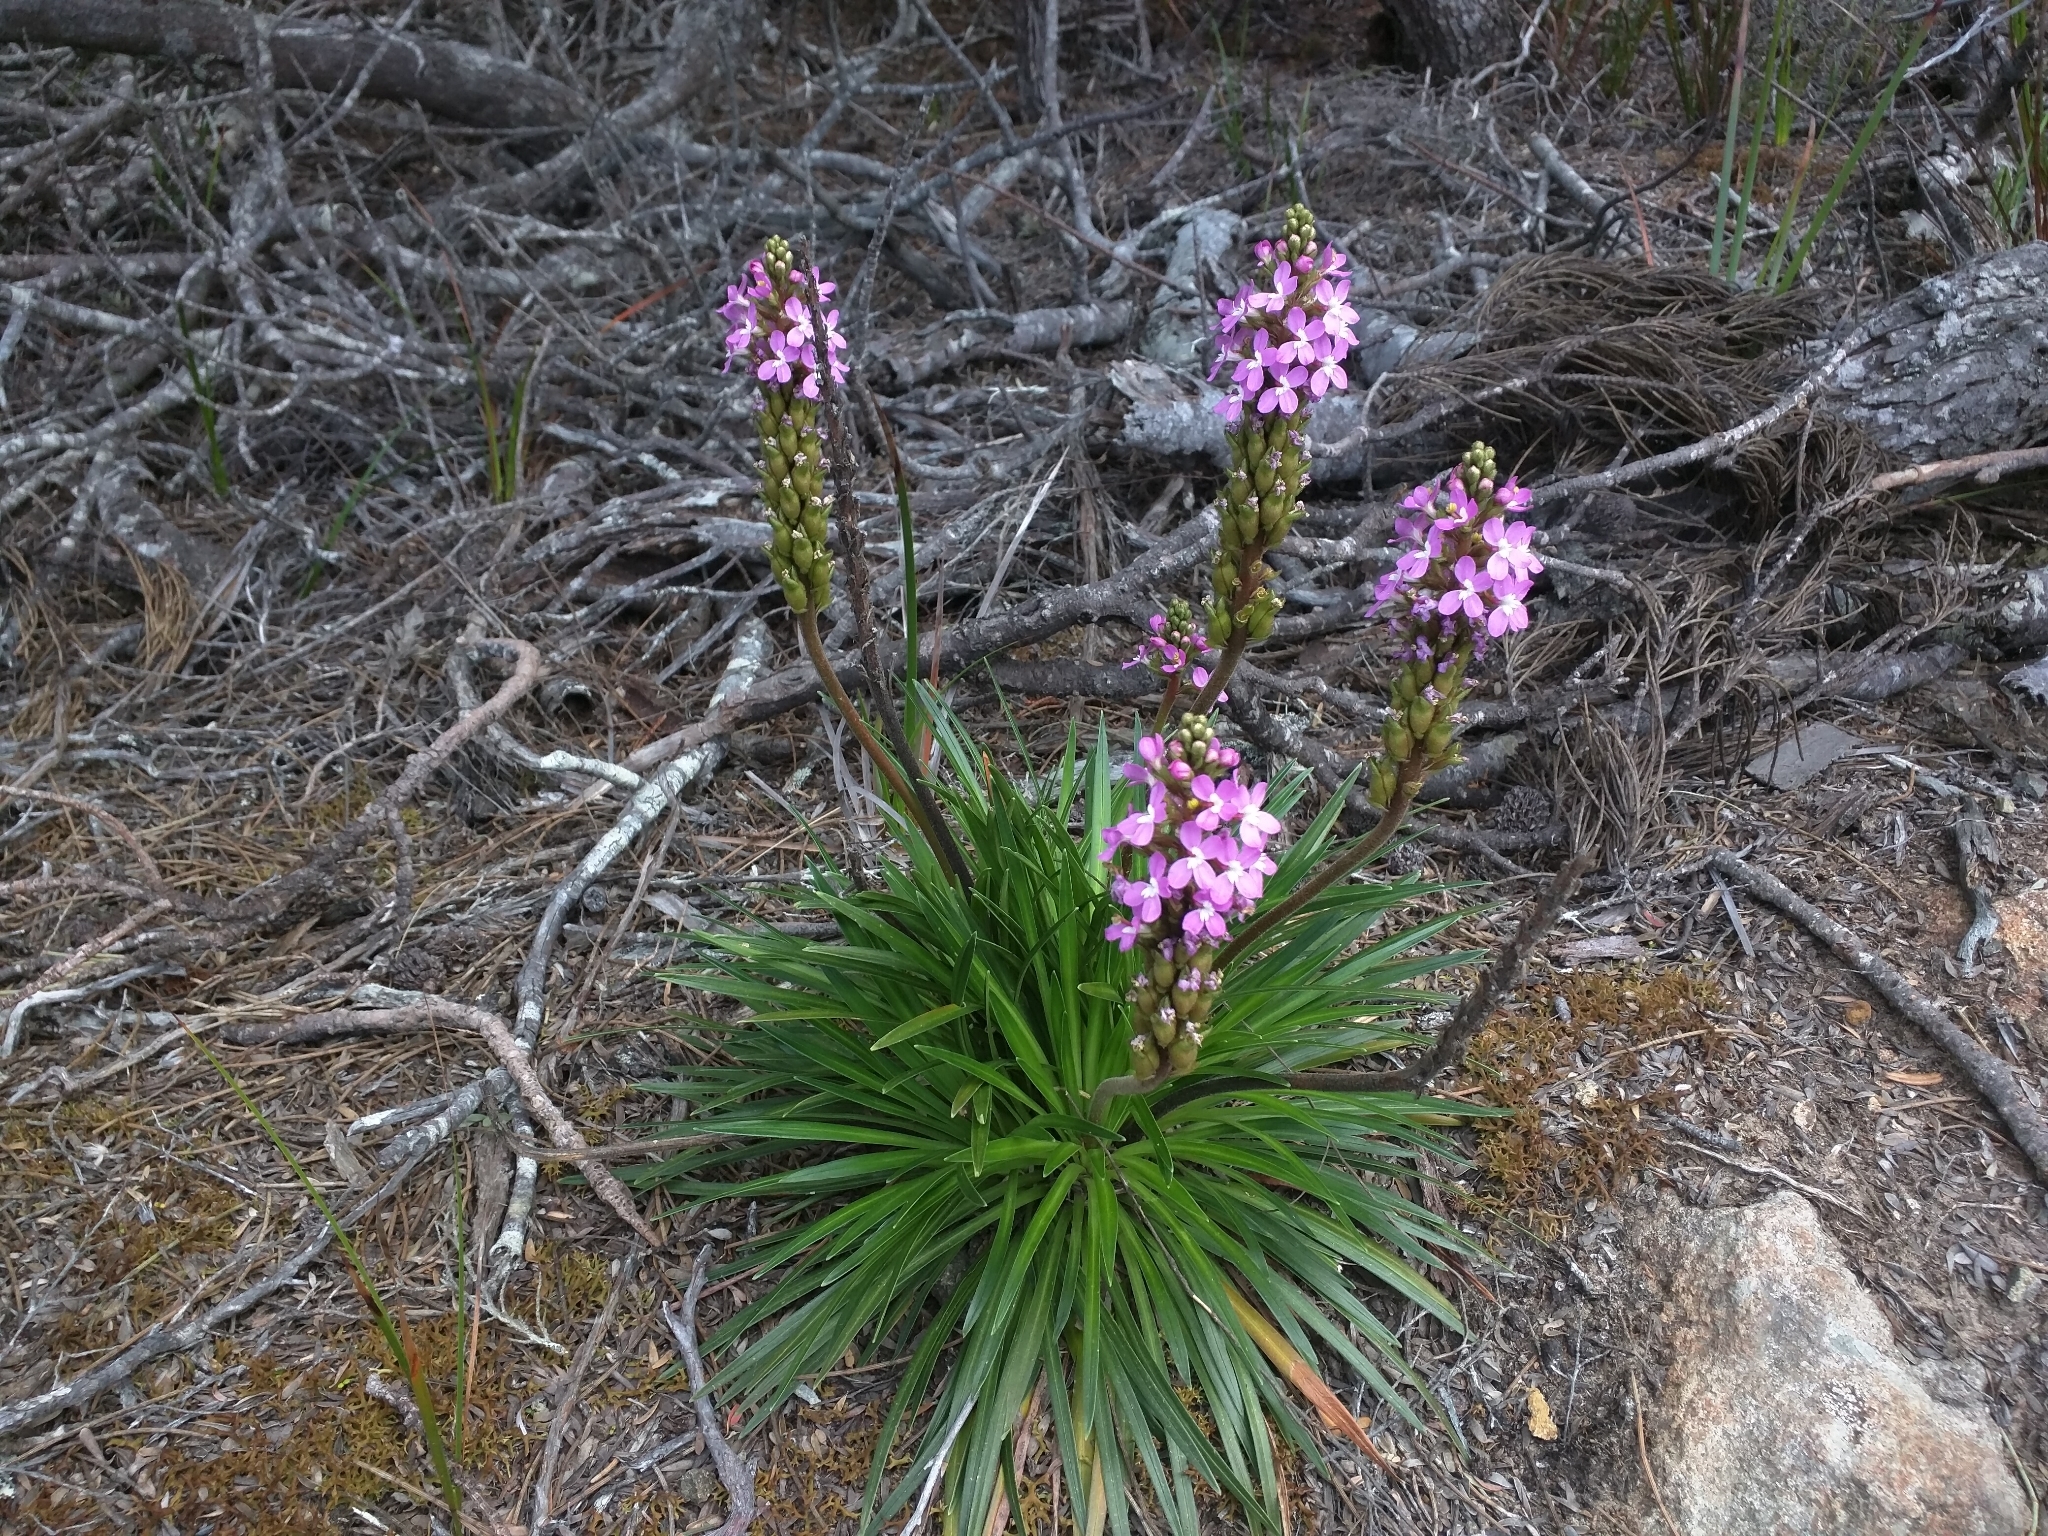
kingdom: Plantae
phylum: Tracheophyta
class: Magnoliopsida
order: Asterales
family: Stylidiaceae
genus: Stylidium
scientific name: Stylidium armeria
